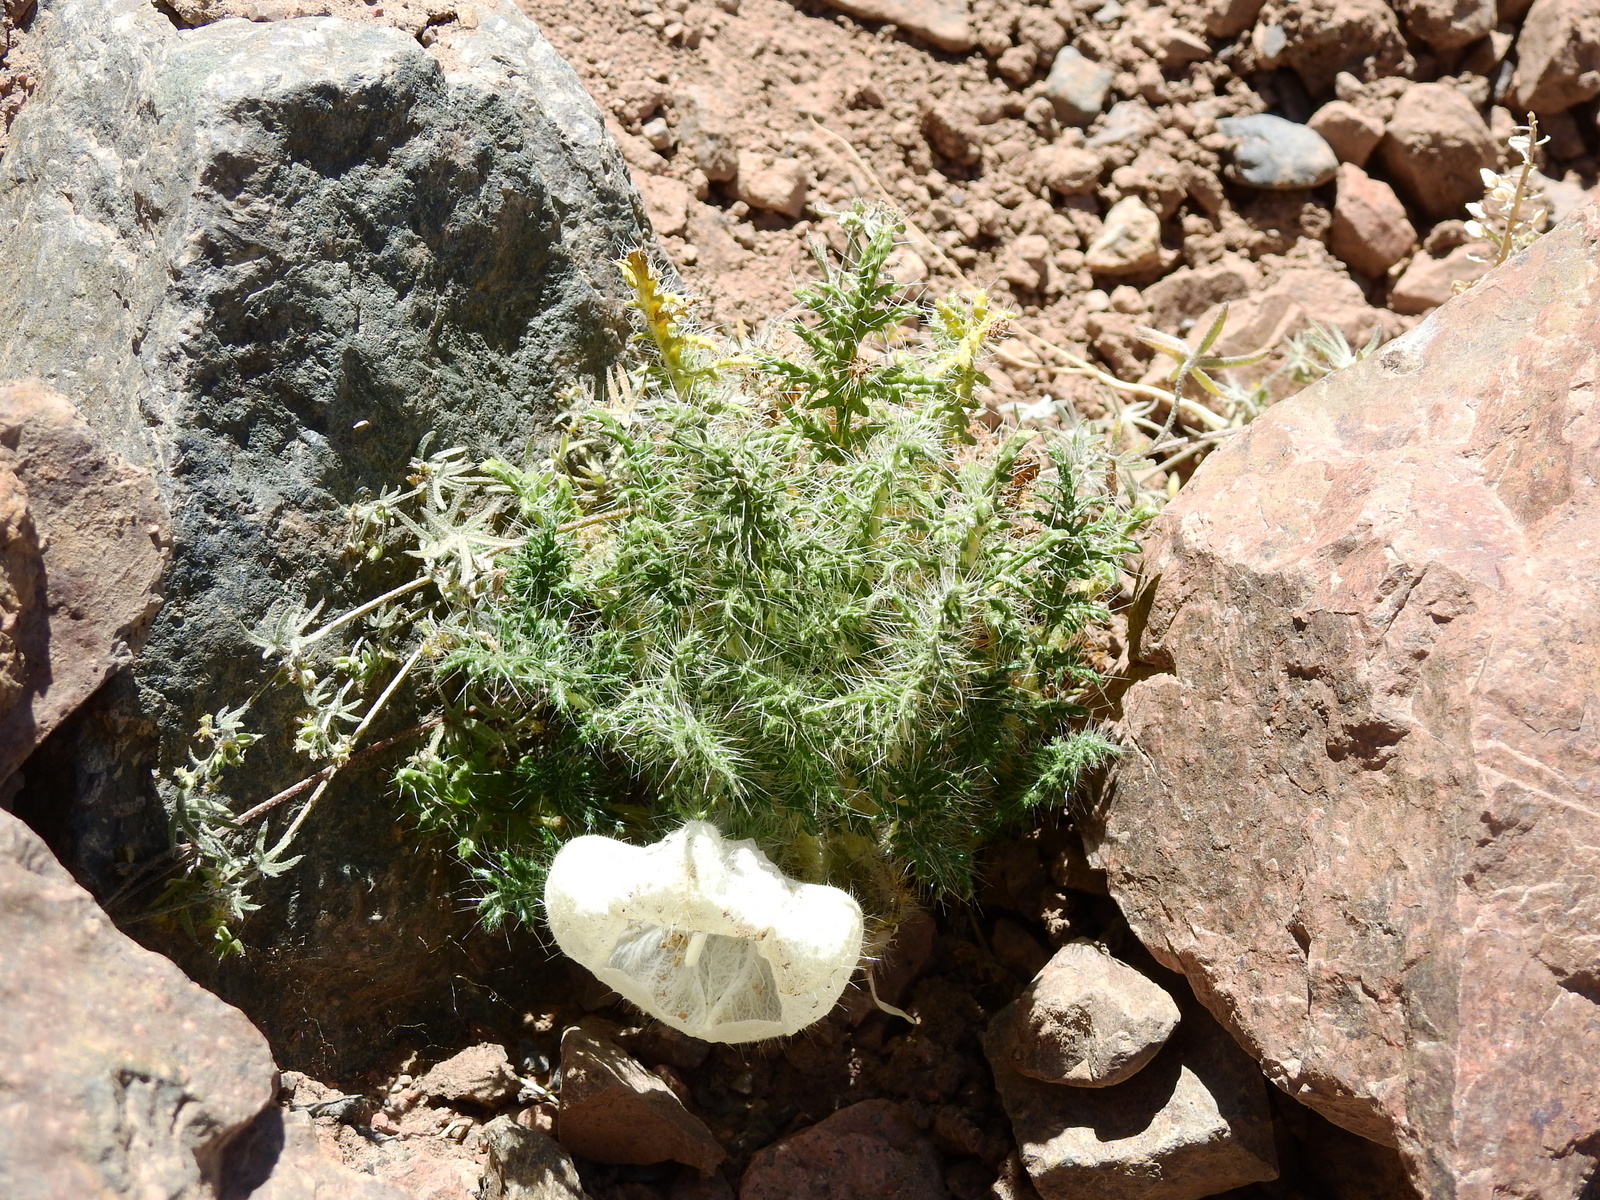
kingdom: Plantae
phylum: Tracheophyta
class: Magnoliopsida
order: Cornales
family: Loasaceae
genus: Caiophora
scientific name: Caiophora coronata
